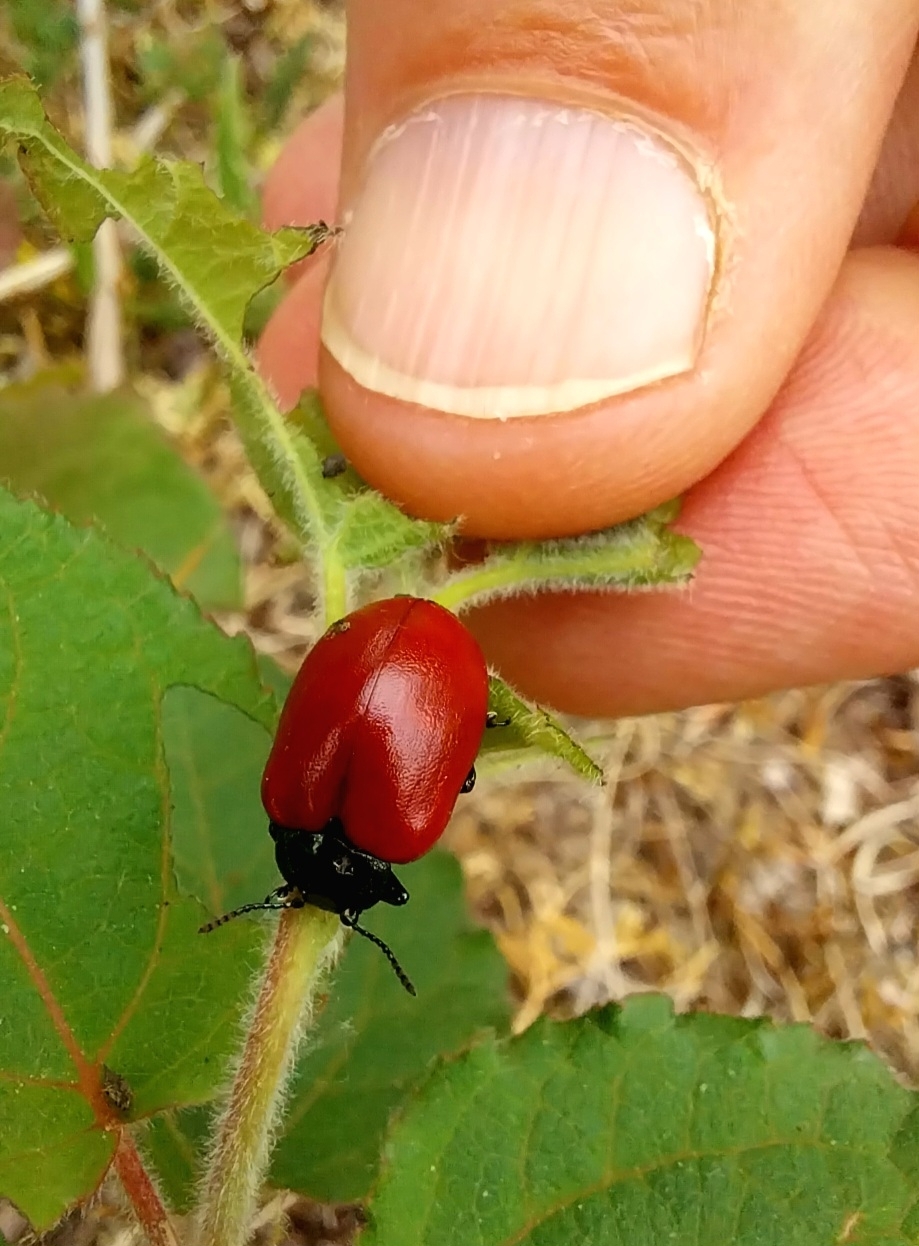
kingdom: Animalia
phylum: Arthropoda
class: Insecta
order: Coleoptera
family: Chrysomelidae
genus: Chrysomela
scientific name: Chrysomela populi
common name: Red poplar leaf beetle
